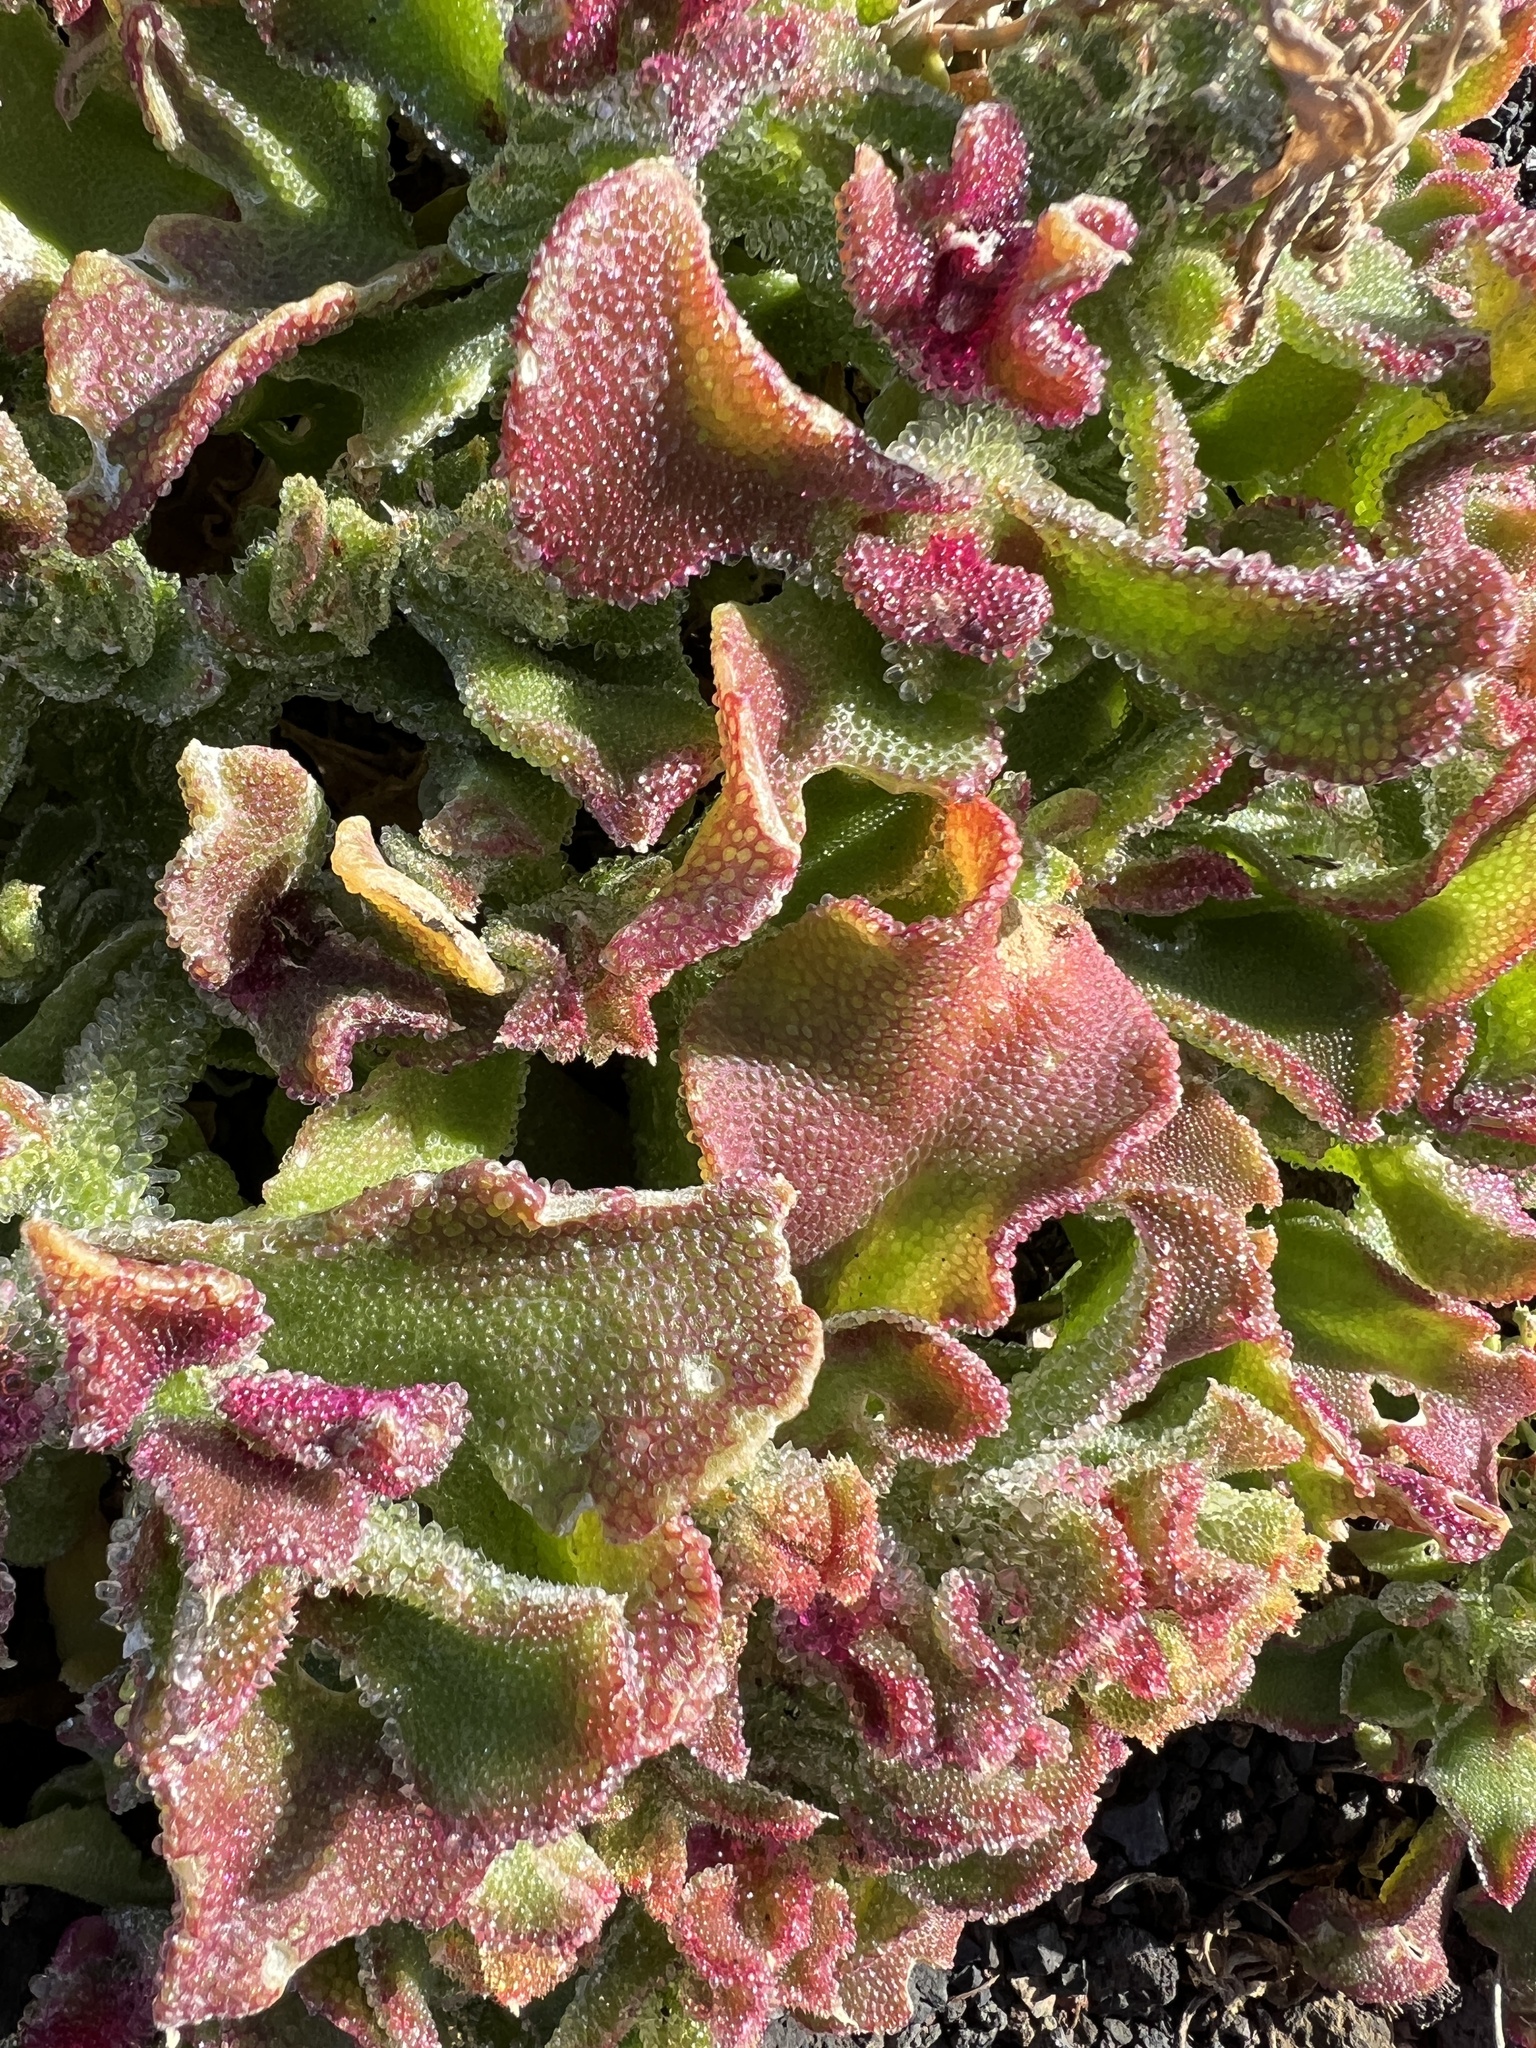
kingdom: Plantae
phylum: Tracheophyta
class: Magnoliopsida
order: Caryophyllales
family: Aizoaceae
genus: Mesembryanthemum
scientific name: Mesembryanthemum crystallinum
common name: Common iceplant
